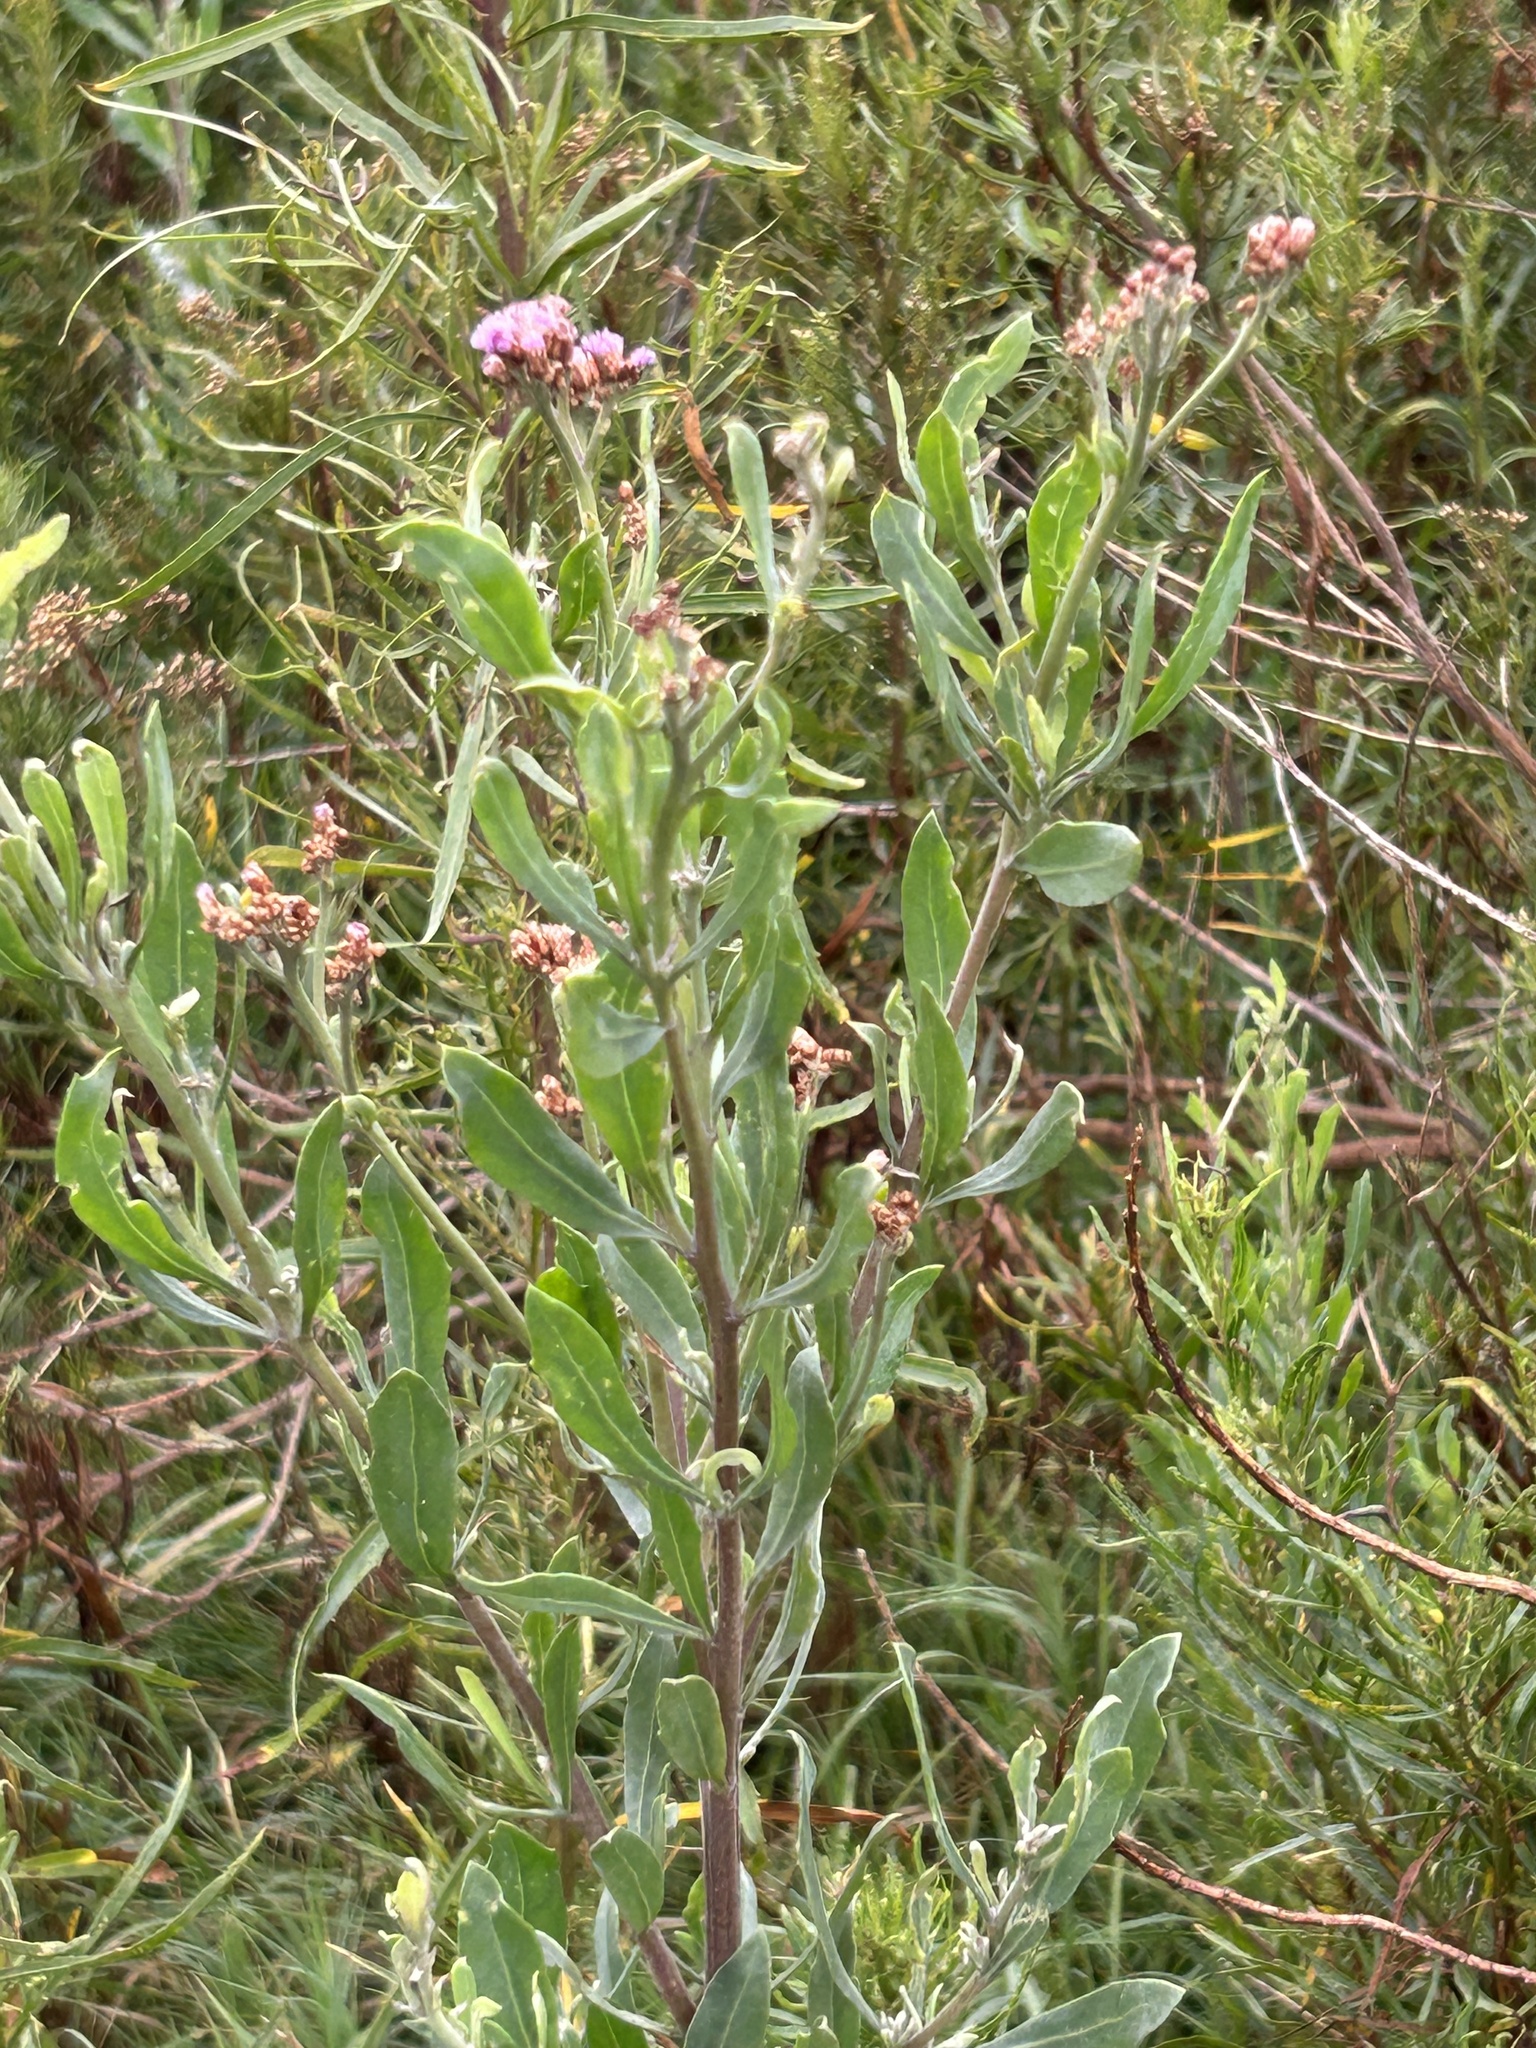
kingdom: Plantae
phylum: Tracheophyta
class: Magnoliopsida
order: Asterales
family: Asteraceae
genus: Tessaria
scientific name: Tessaria absinthioides
